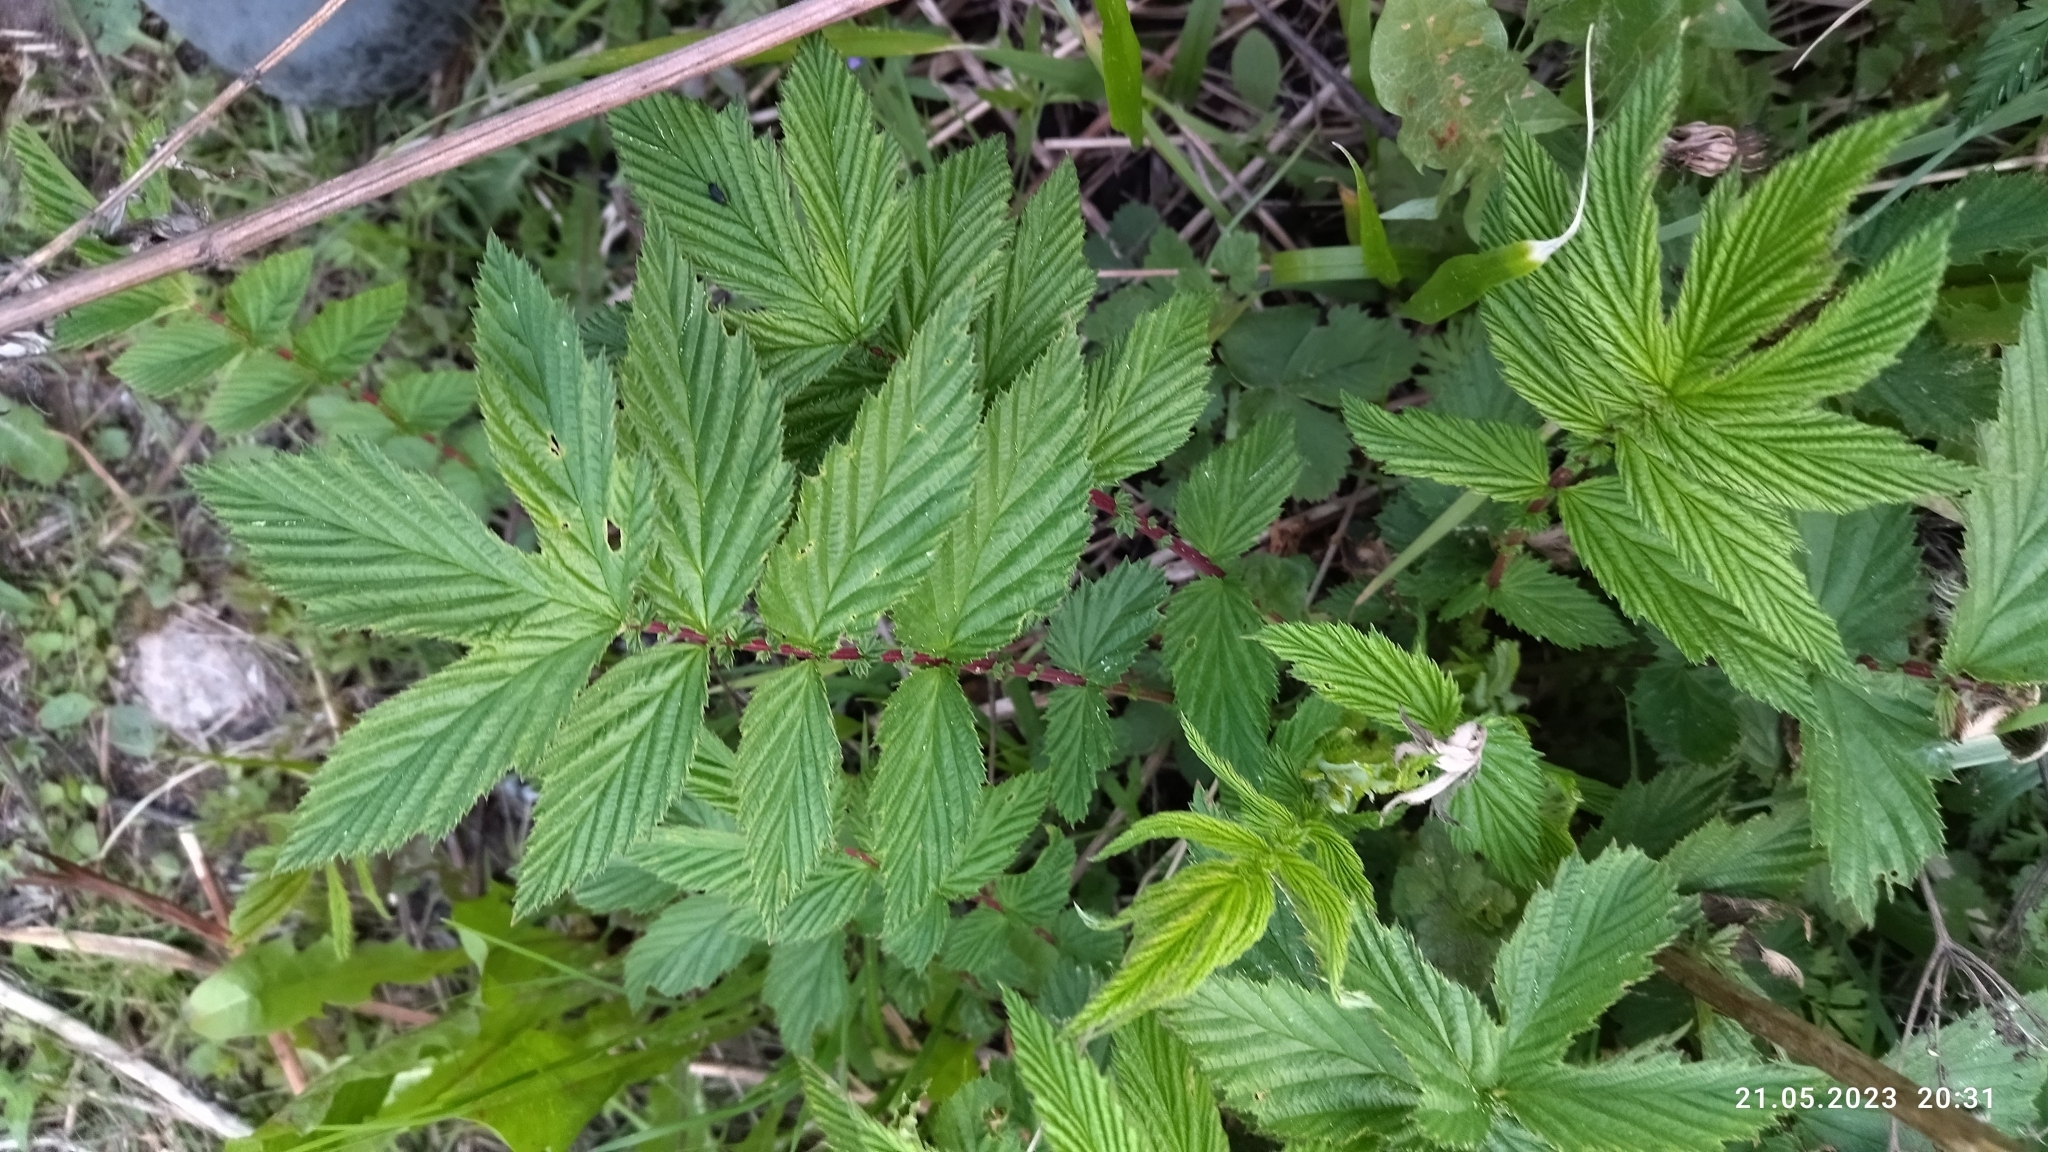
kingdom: Plantae
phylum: Tracheophyta
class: Magnoliopsida
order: Rosales
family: Rosaceae
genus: Filipendula
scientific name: Filipendula ulmaria
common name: Meadowsweet
